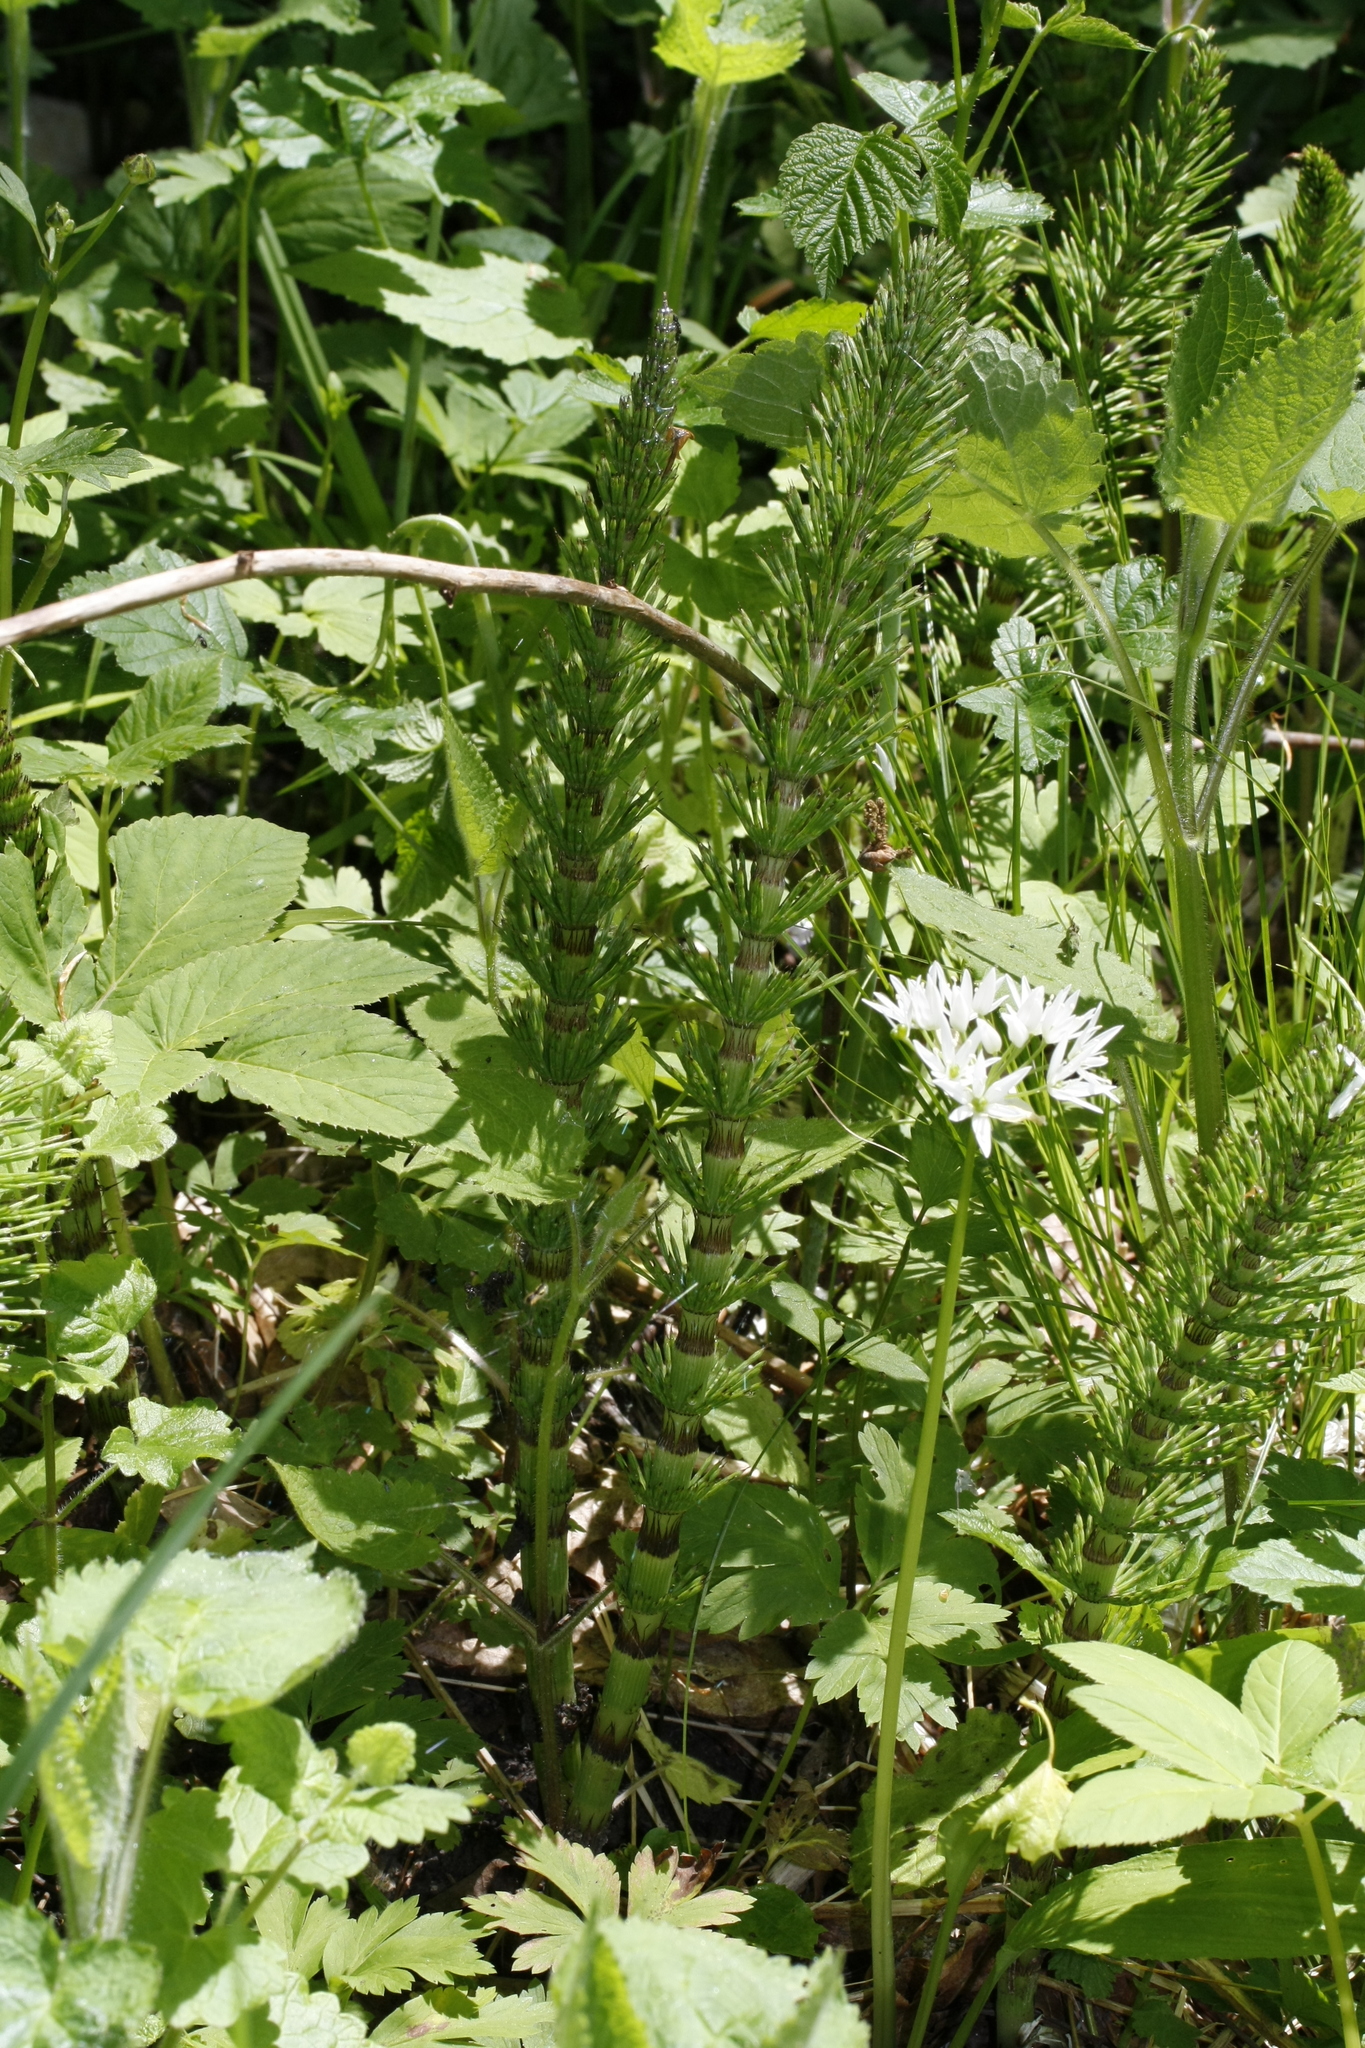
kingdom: Plantae
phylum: Tracheophyta
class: Polypodiopsida
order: Equisetales
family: Equisetaceae
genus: Equisetum
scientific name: Equisetum telmateia
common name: Great horsetail
